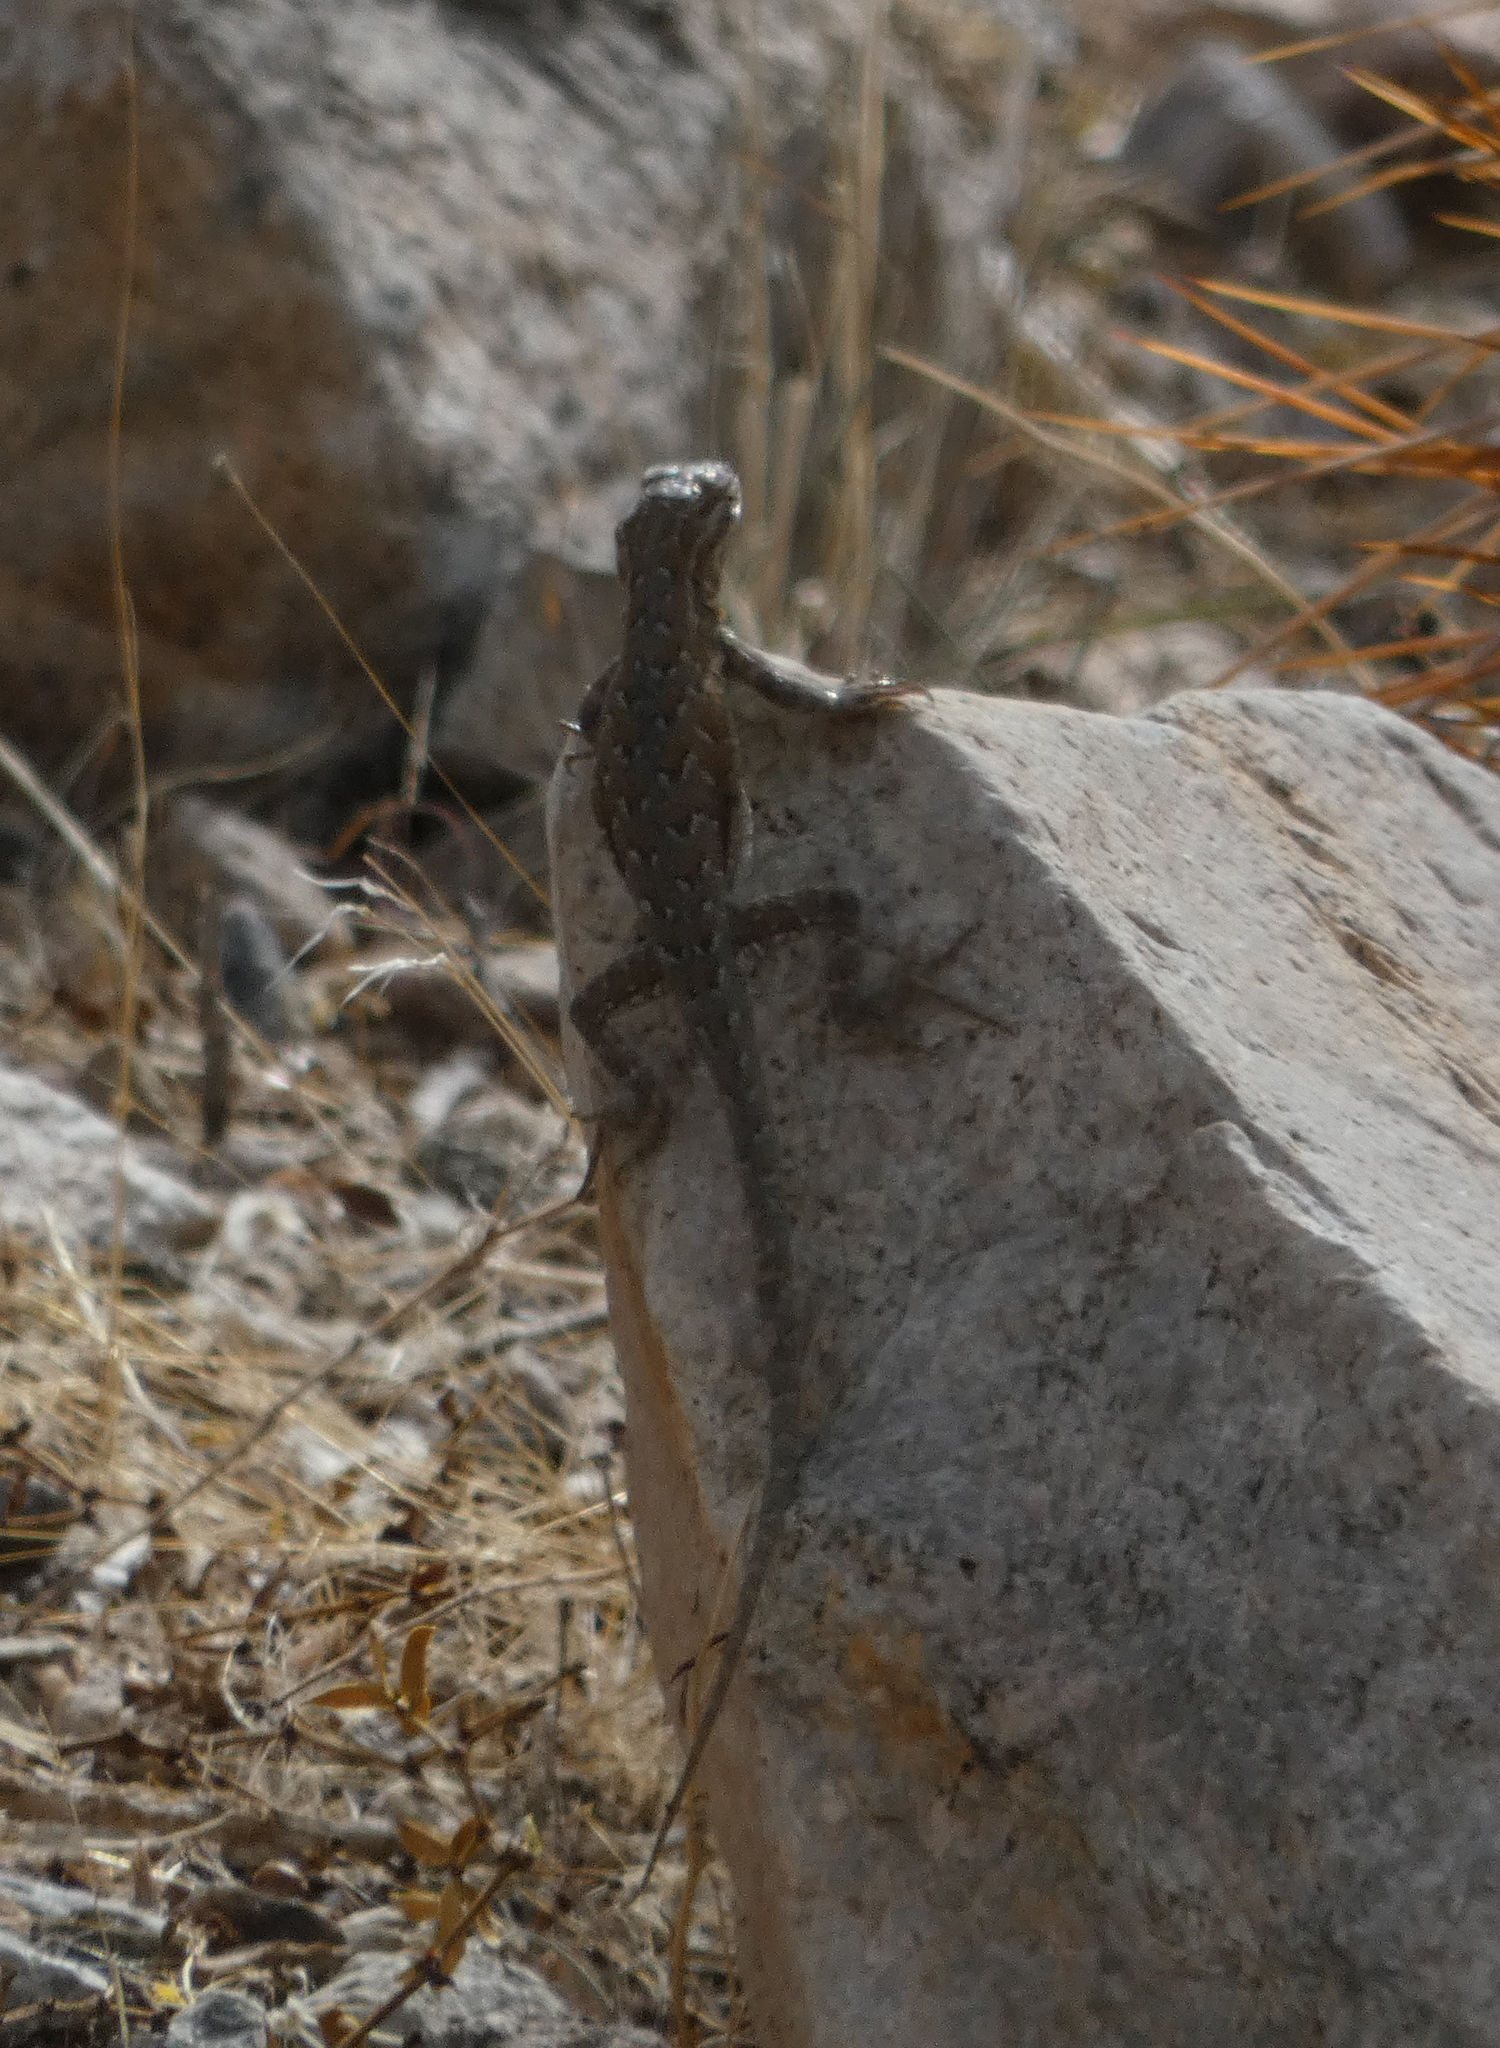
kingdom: Animalia
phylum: Chordata
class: Squamata
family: Phrynosomatidae
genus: Uta
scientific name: Uta stansburiana
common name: Side-blotched lizard
